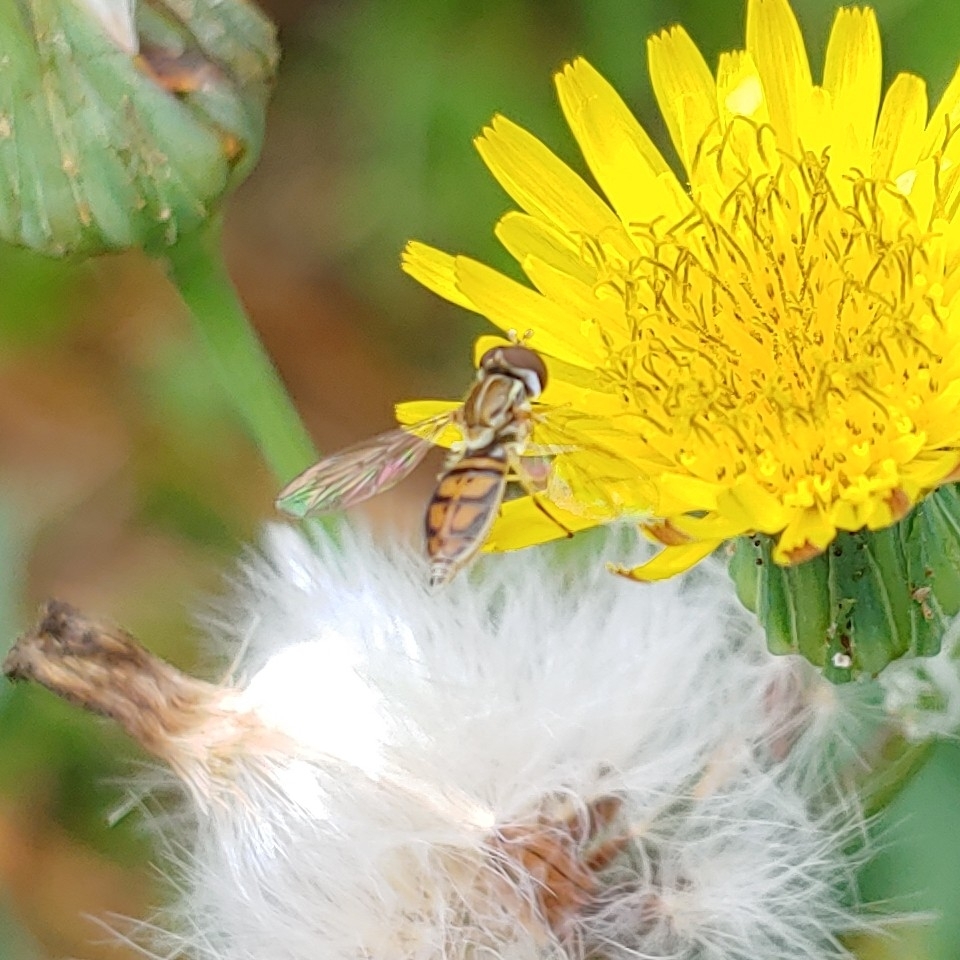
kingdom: Animalia
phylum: Arthropoda
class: Insecta
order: Diptera
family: Syrphidae
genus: Toxomerus
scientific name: Toxomerus marginatus
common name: Syrphid fly
